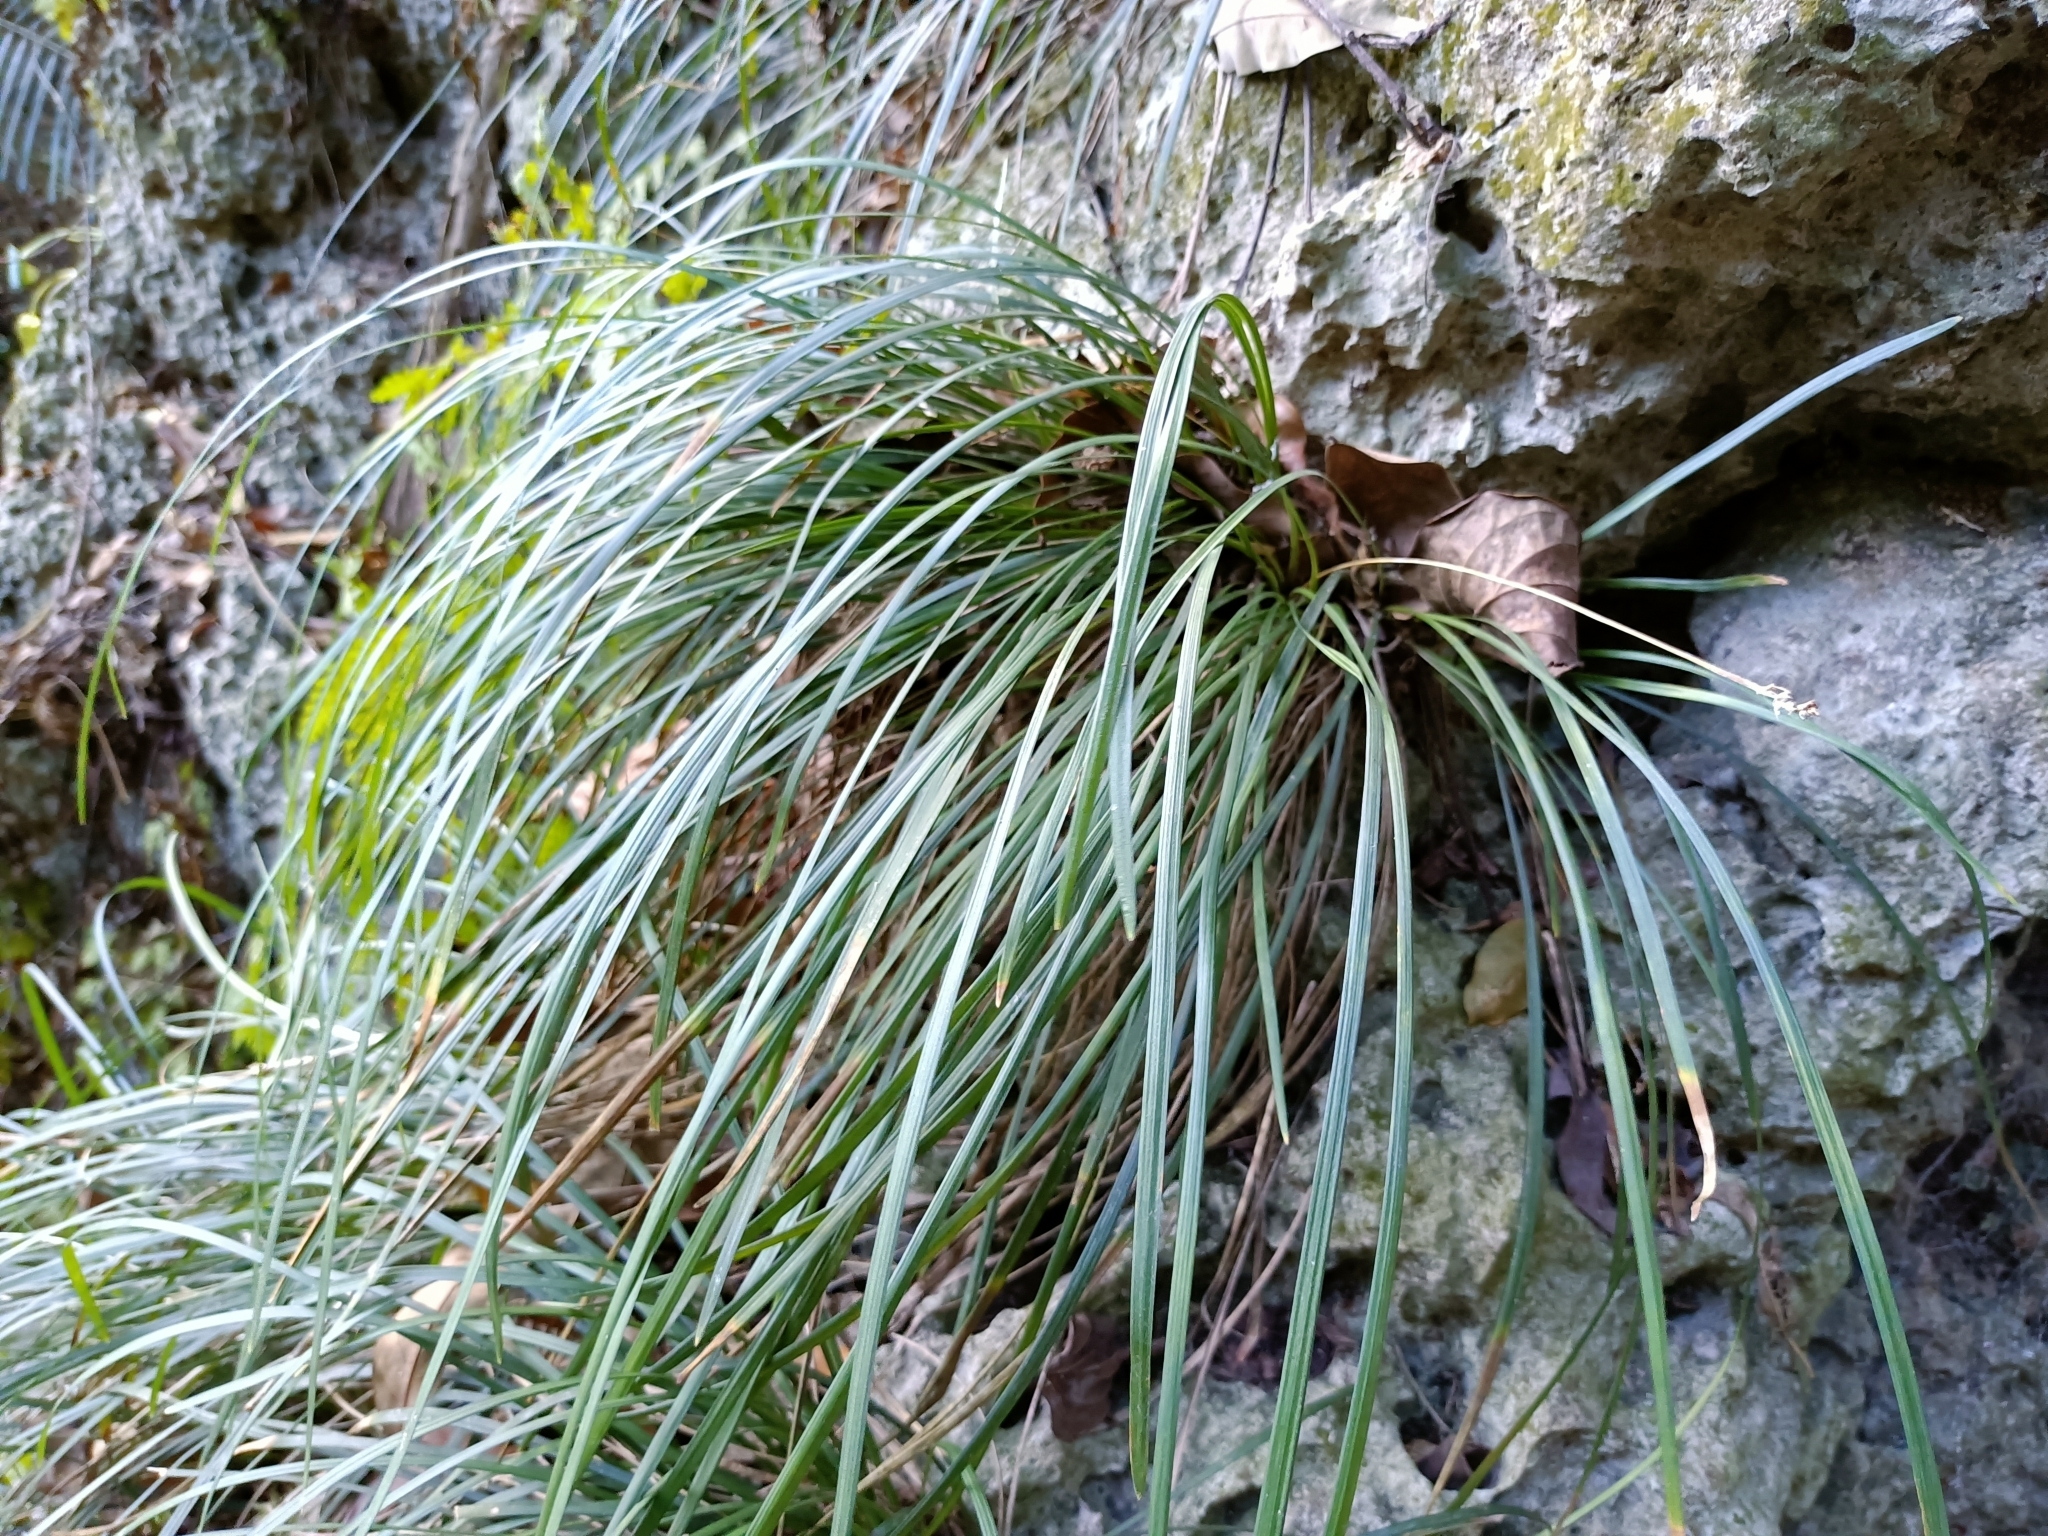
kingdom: Plantae
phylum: Tracheophyta
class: Liliopsida
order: Asparagales
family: Asparagaceae
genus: Liriope
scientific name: Liriope graminifolia
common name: Lilyturf
